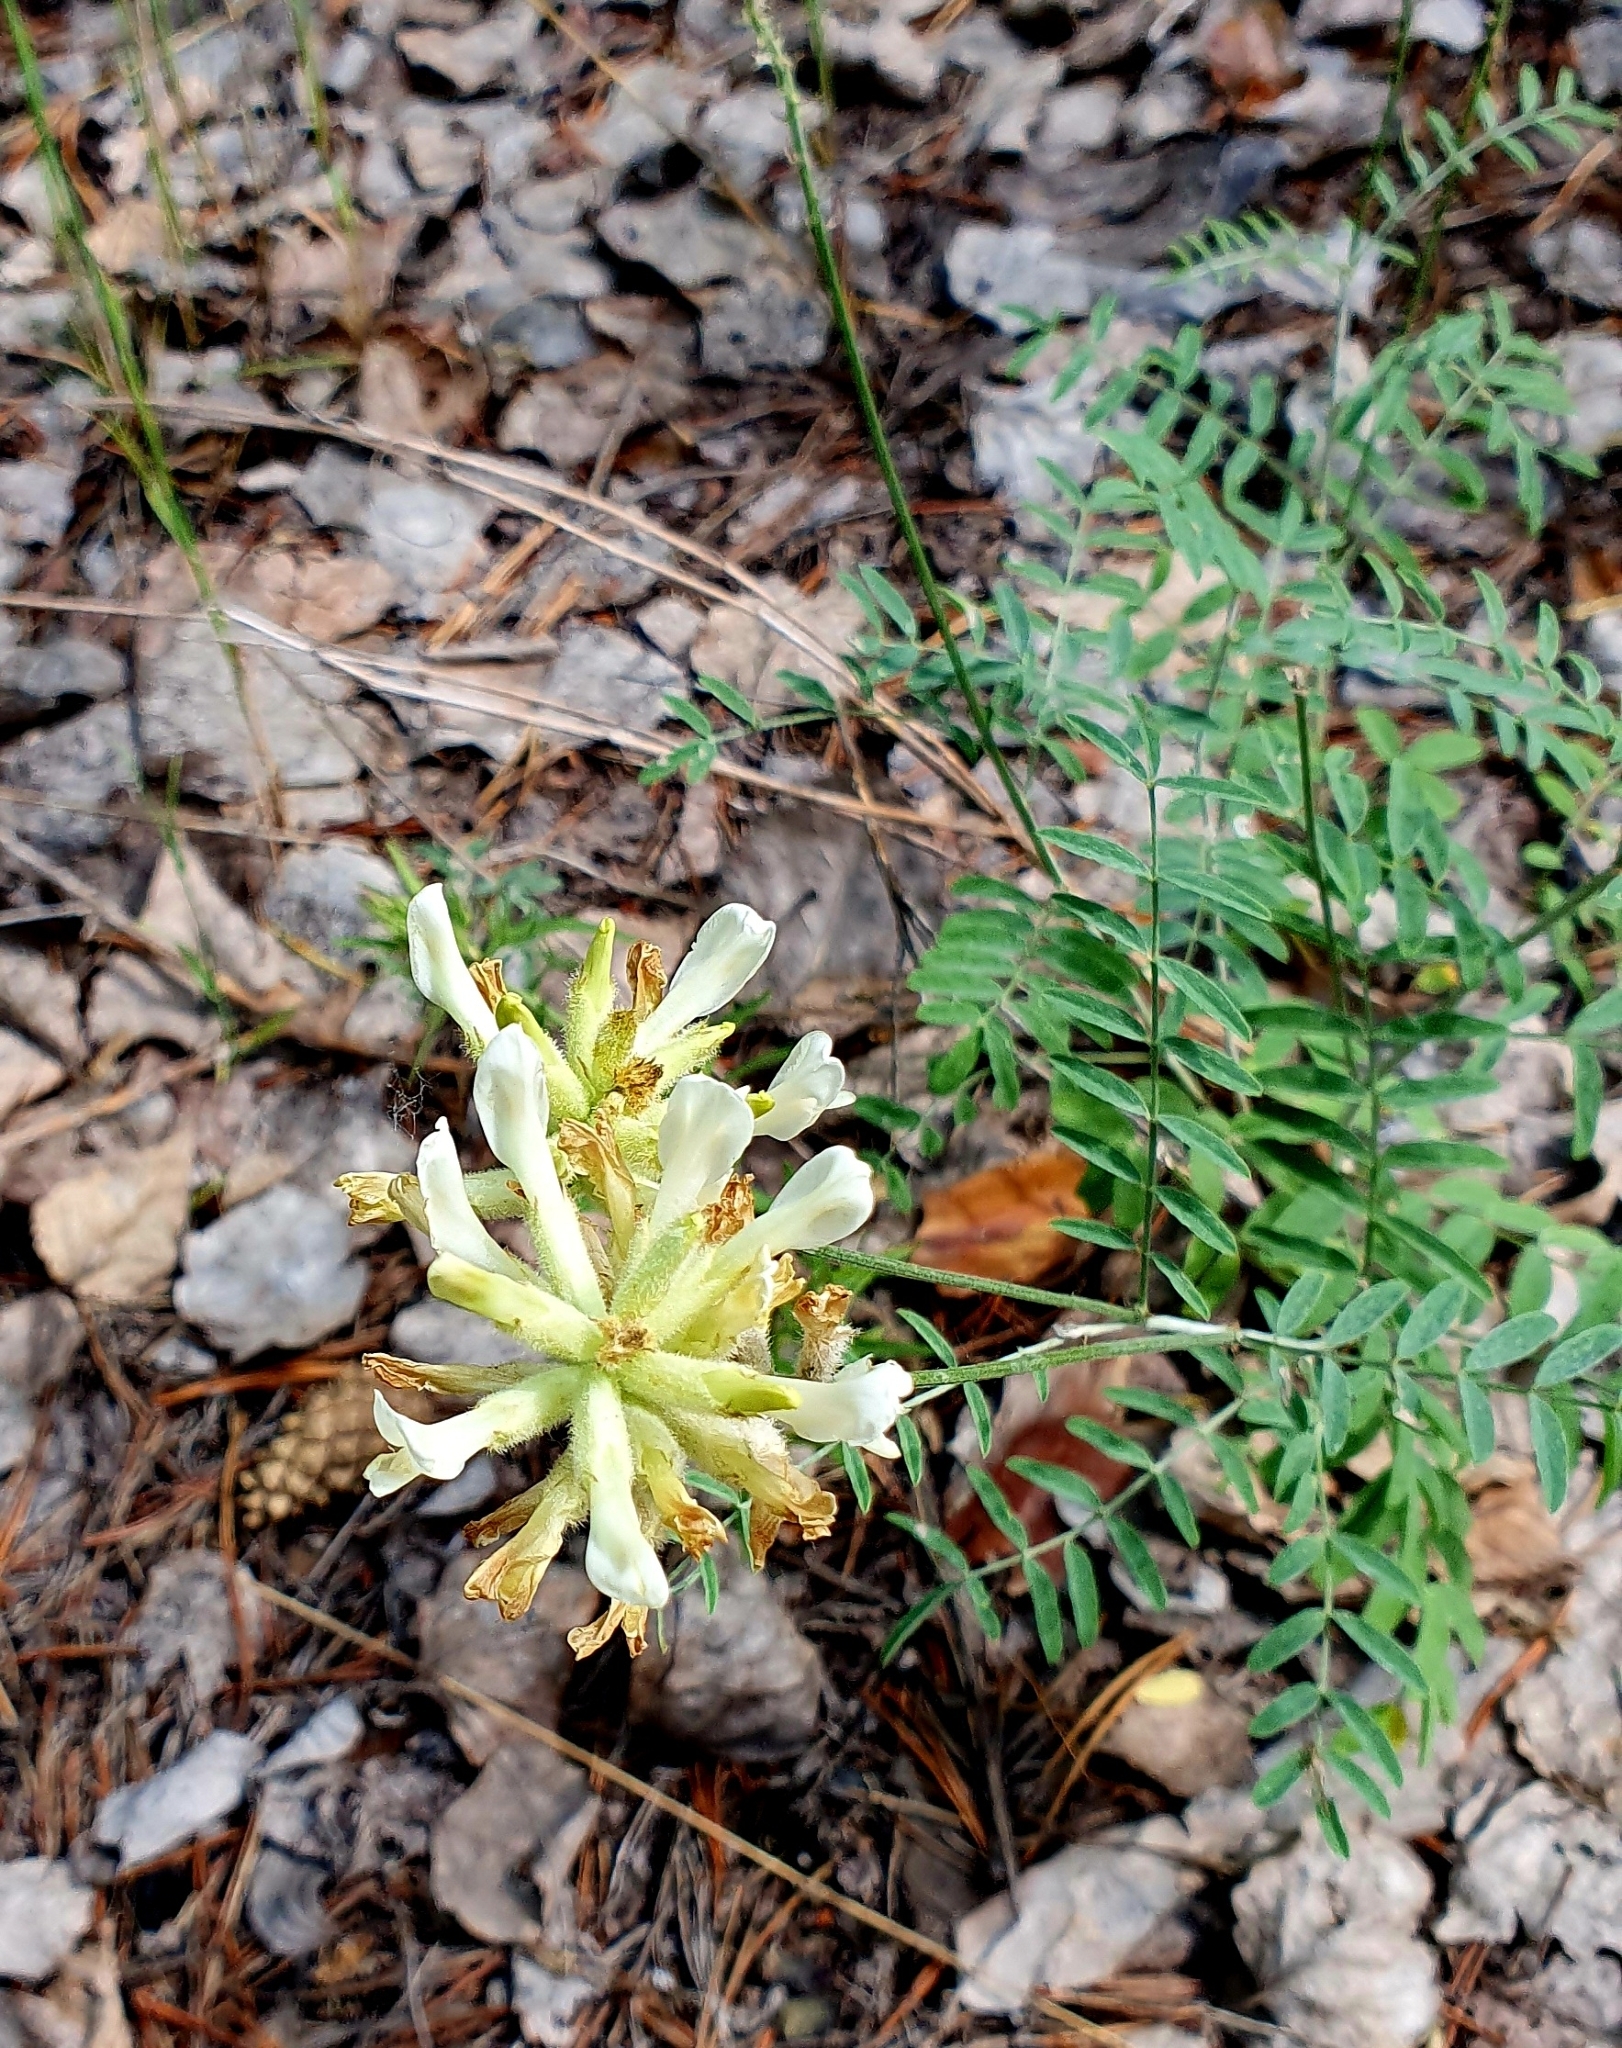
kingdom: Plantae
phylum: Tracheophyta
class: Magnoliopsida
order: Fabales
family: Fabaceae
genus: Astragalus
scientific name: Astragalus zingeri
